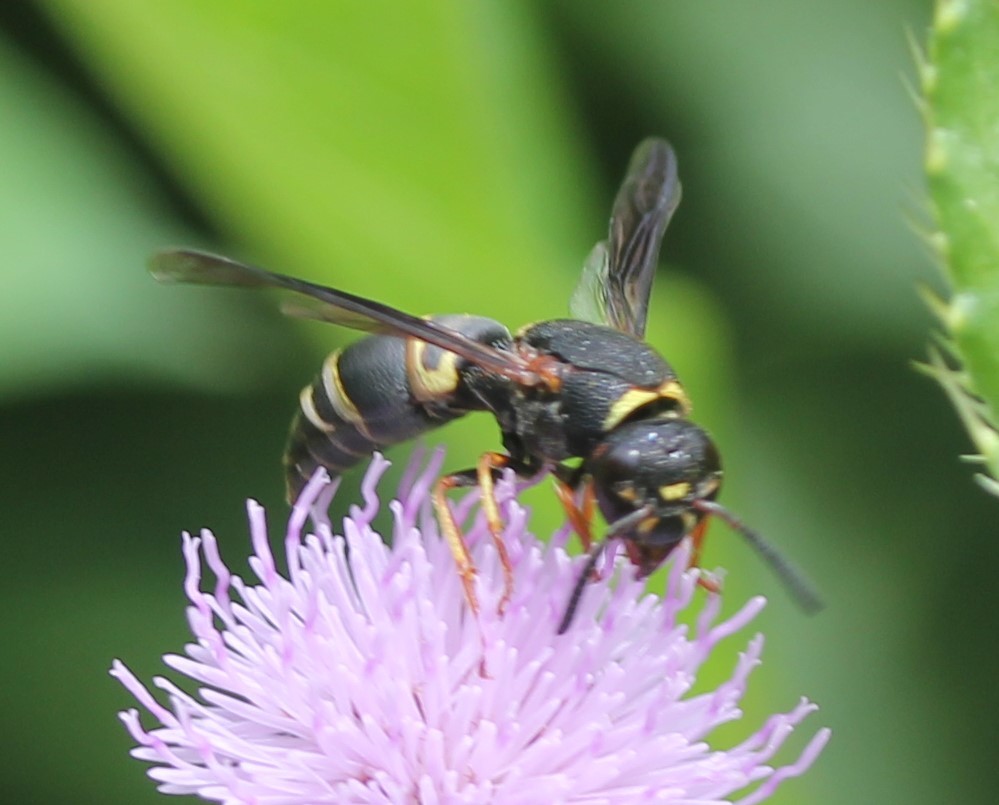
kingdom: Animalia
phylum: Arthropoda
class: Insecta
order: Hymenoptera
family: Eumenidae
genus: Euodynerus
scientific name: Euodynerus hidalgo
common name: Wasp
